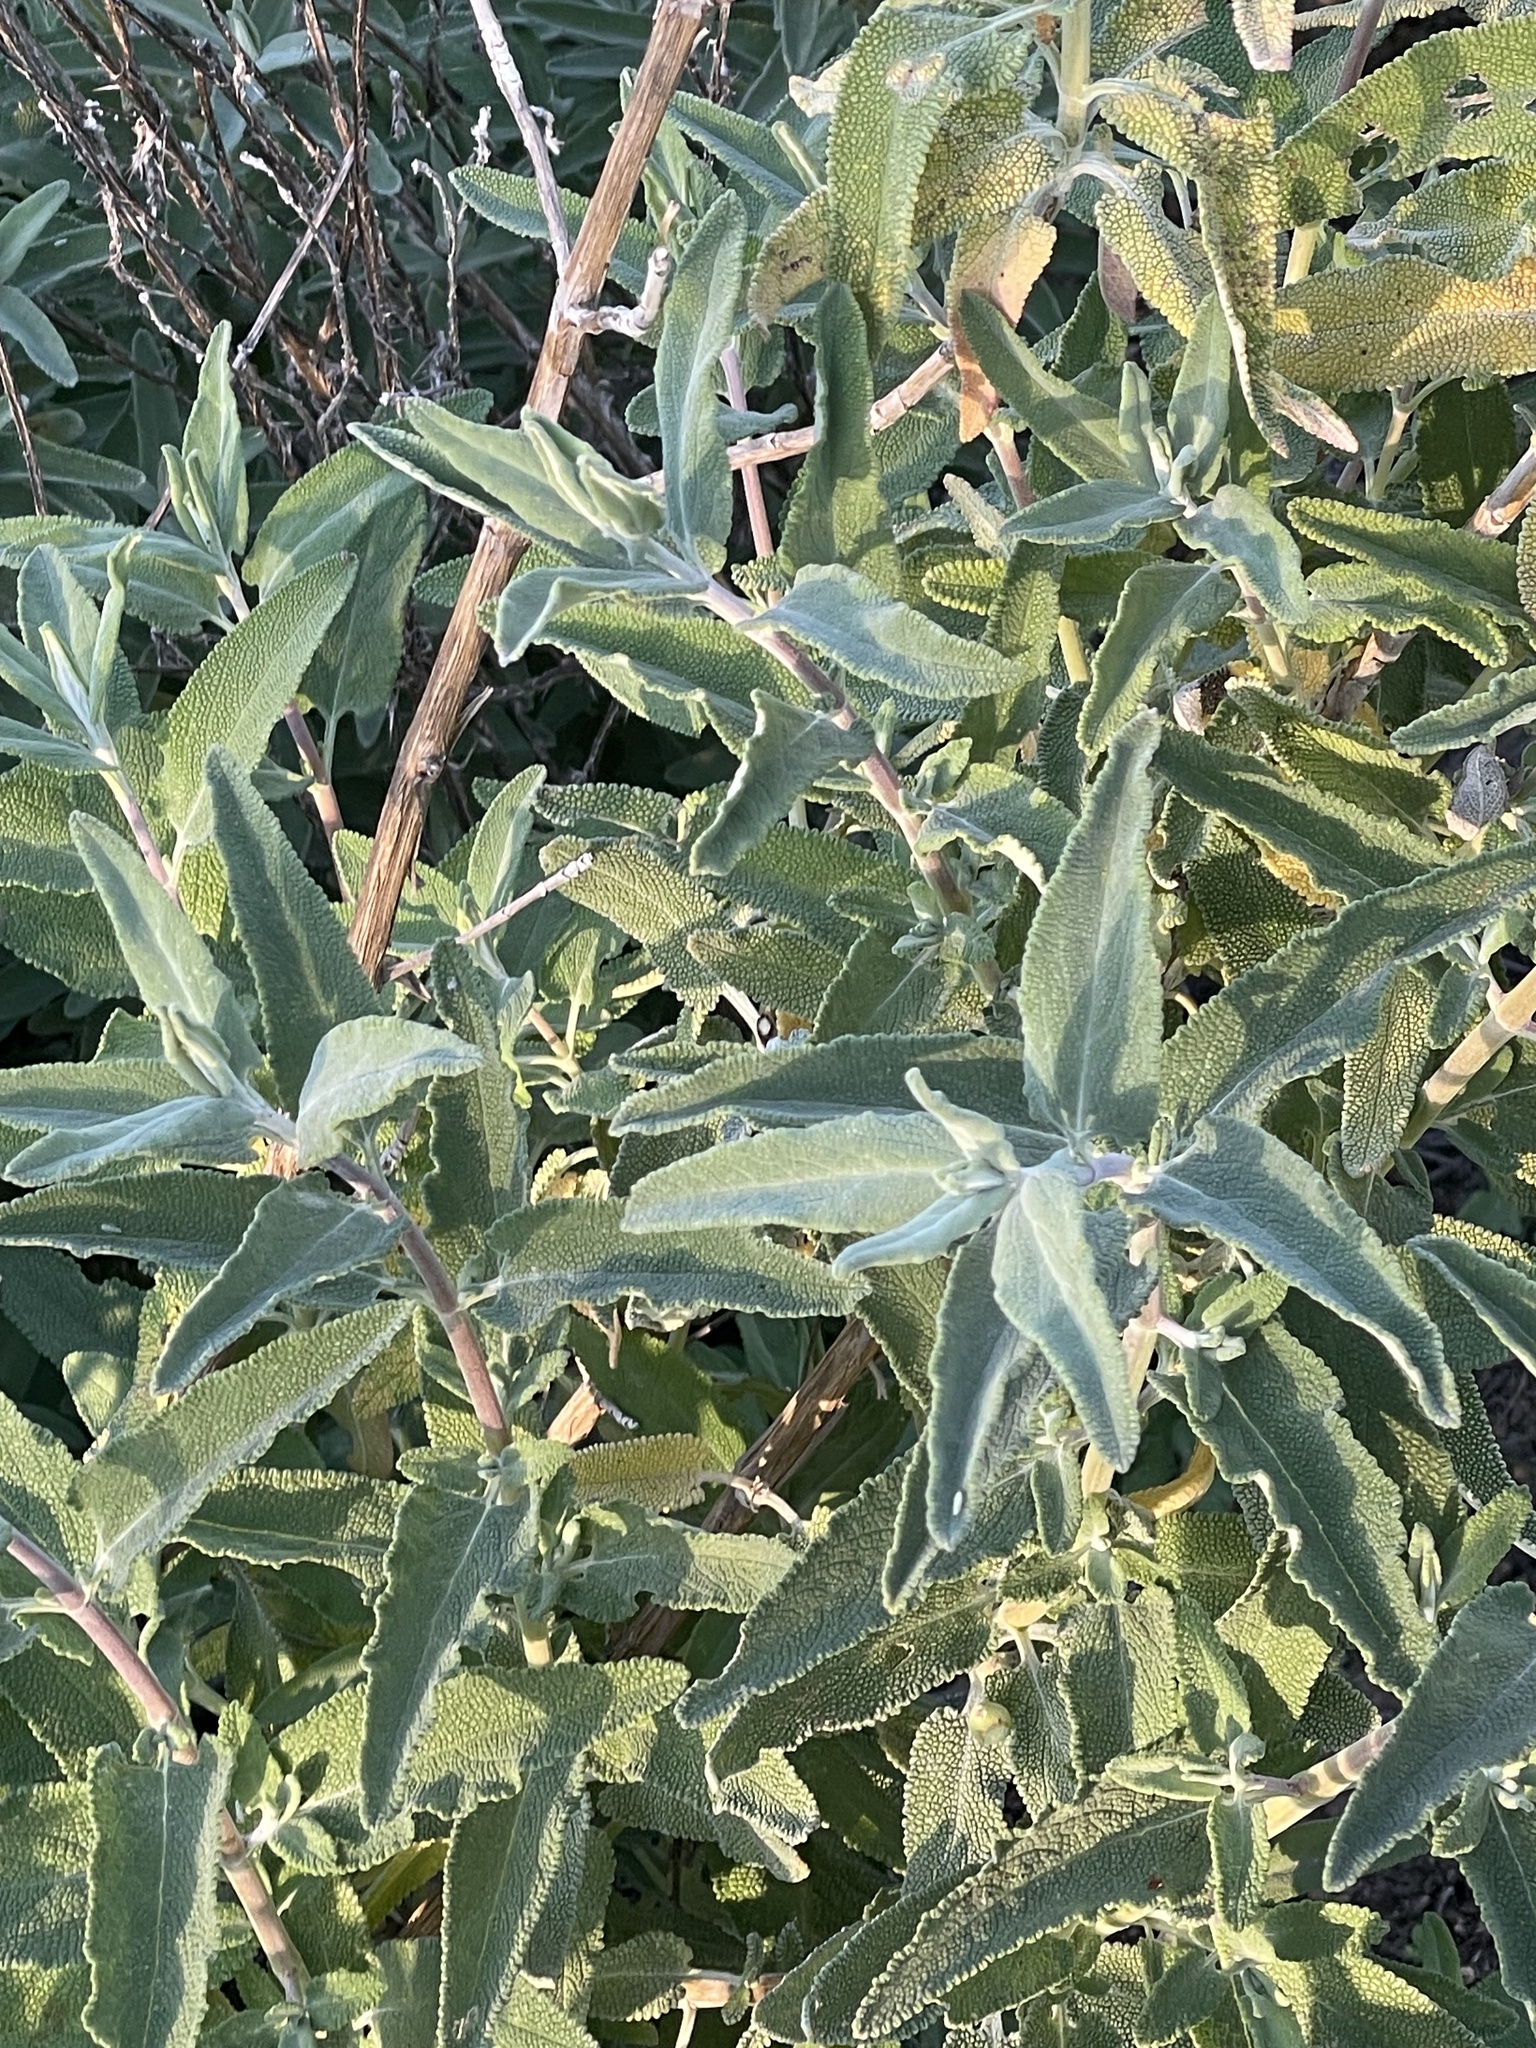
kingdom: Plantae
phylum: Tracheophyta
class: Magnoliopsida
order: Lamiales
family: Lamiaceae
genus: Salvia
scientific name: Salvia leucophylla
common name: Purple sage
